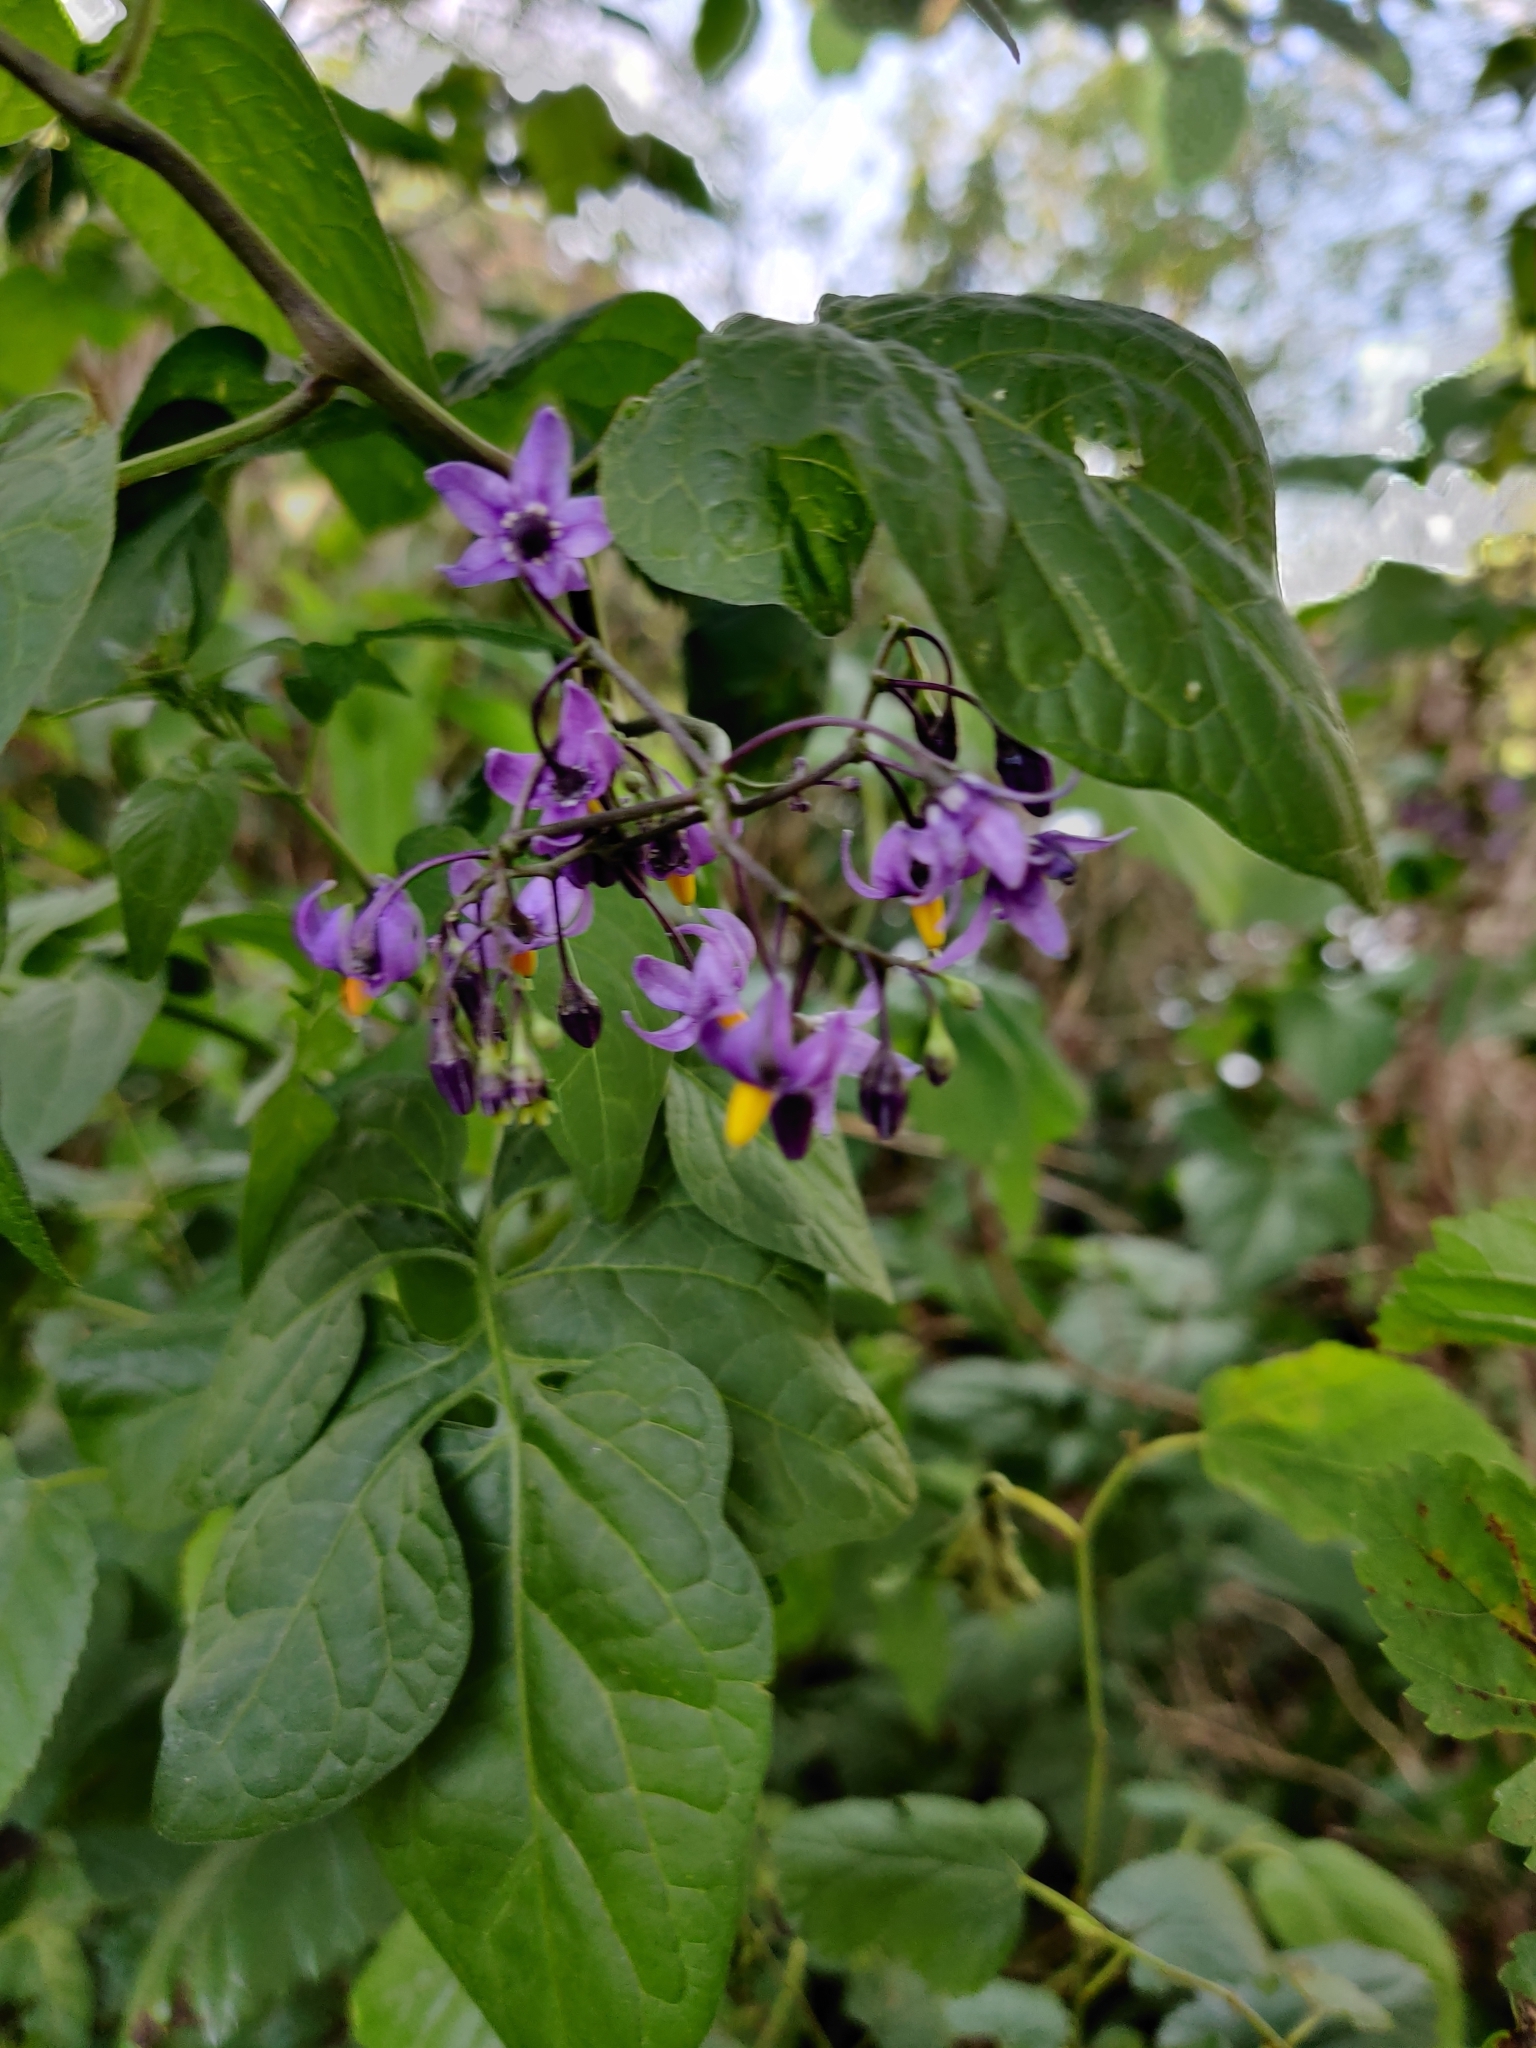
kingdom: Plantae
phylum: Tracheophyta
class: Magnoliopsida
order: Solanales
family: Solanaceae
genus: Solanum
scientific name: Solanum dulcamara
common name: Climbing nightshade
